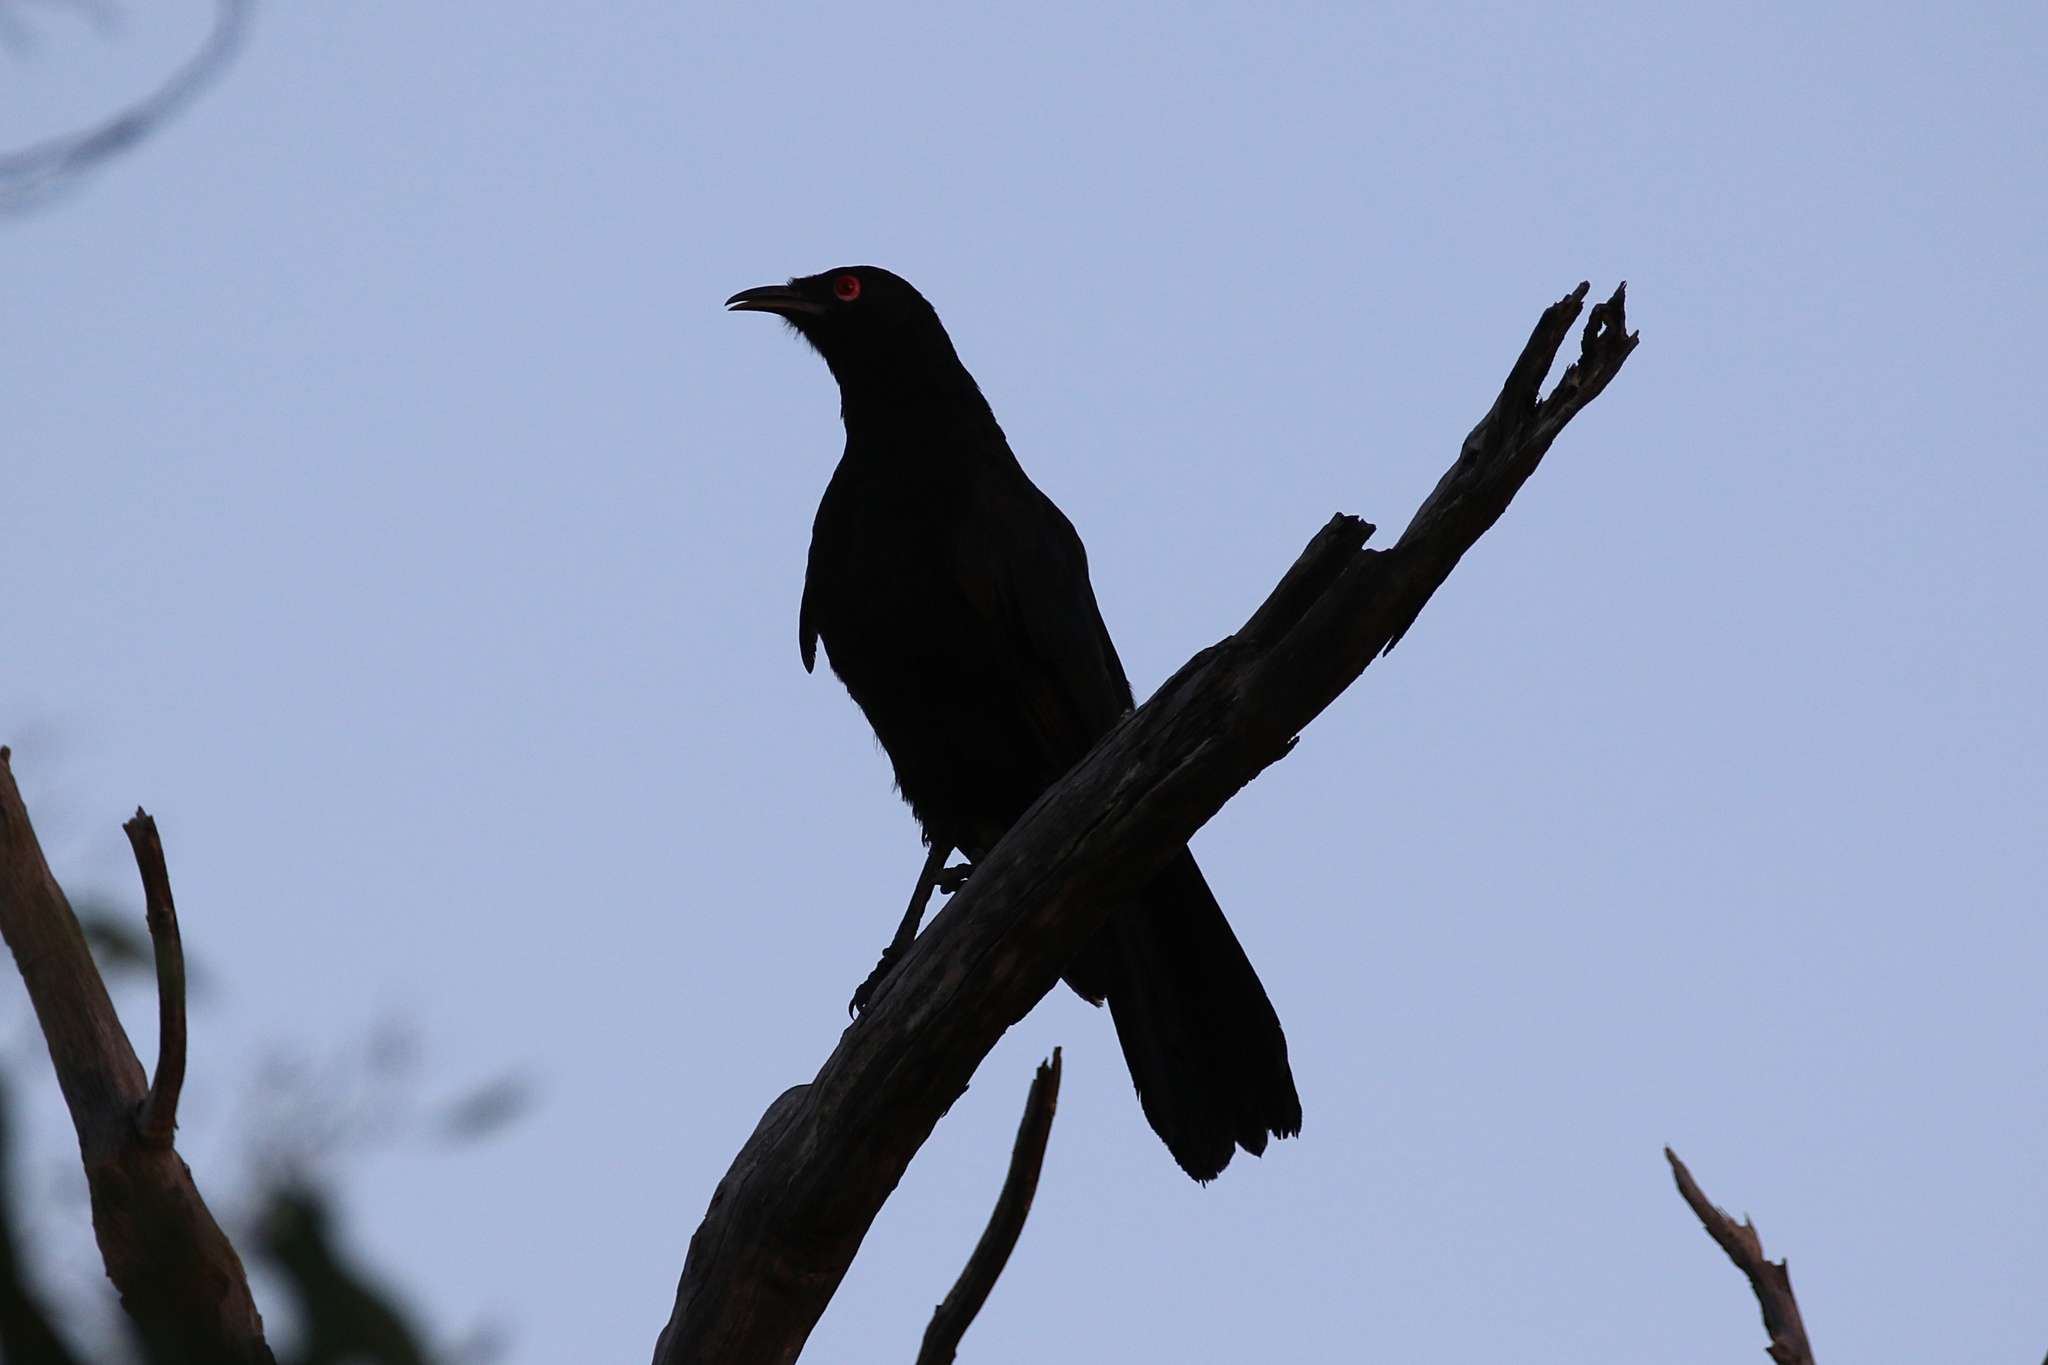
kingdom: Animalia
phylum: Chordata
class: Aves
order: Passeriformes
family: Corcoracidae
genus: Corcorax
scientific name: Corcorax melanoramphos
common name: White-winged chough
